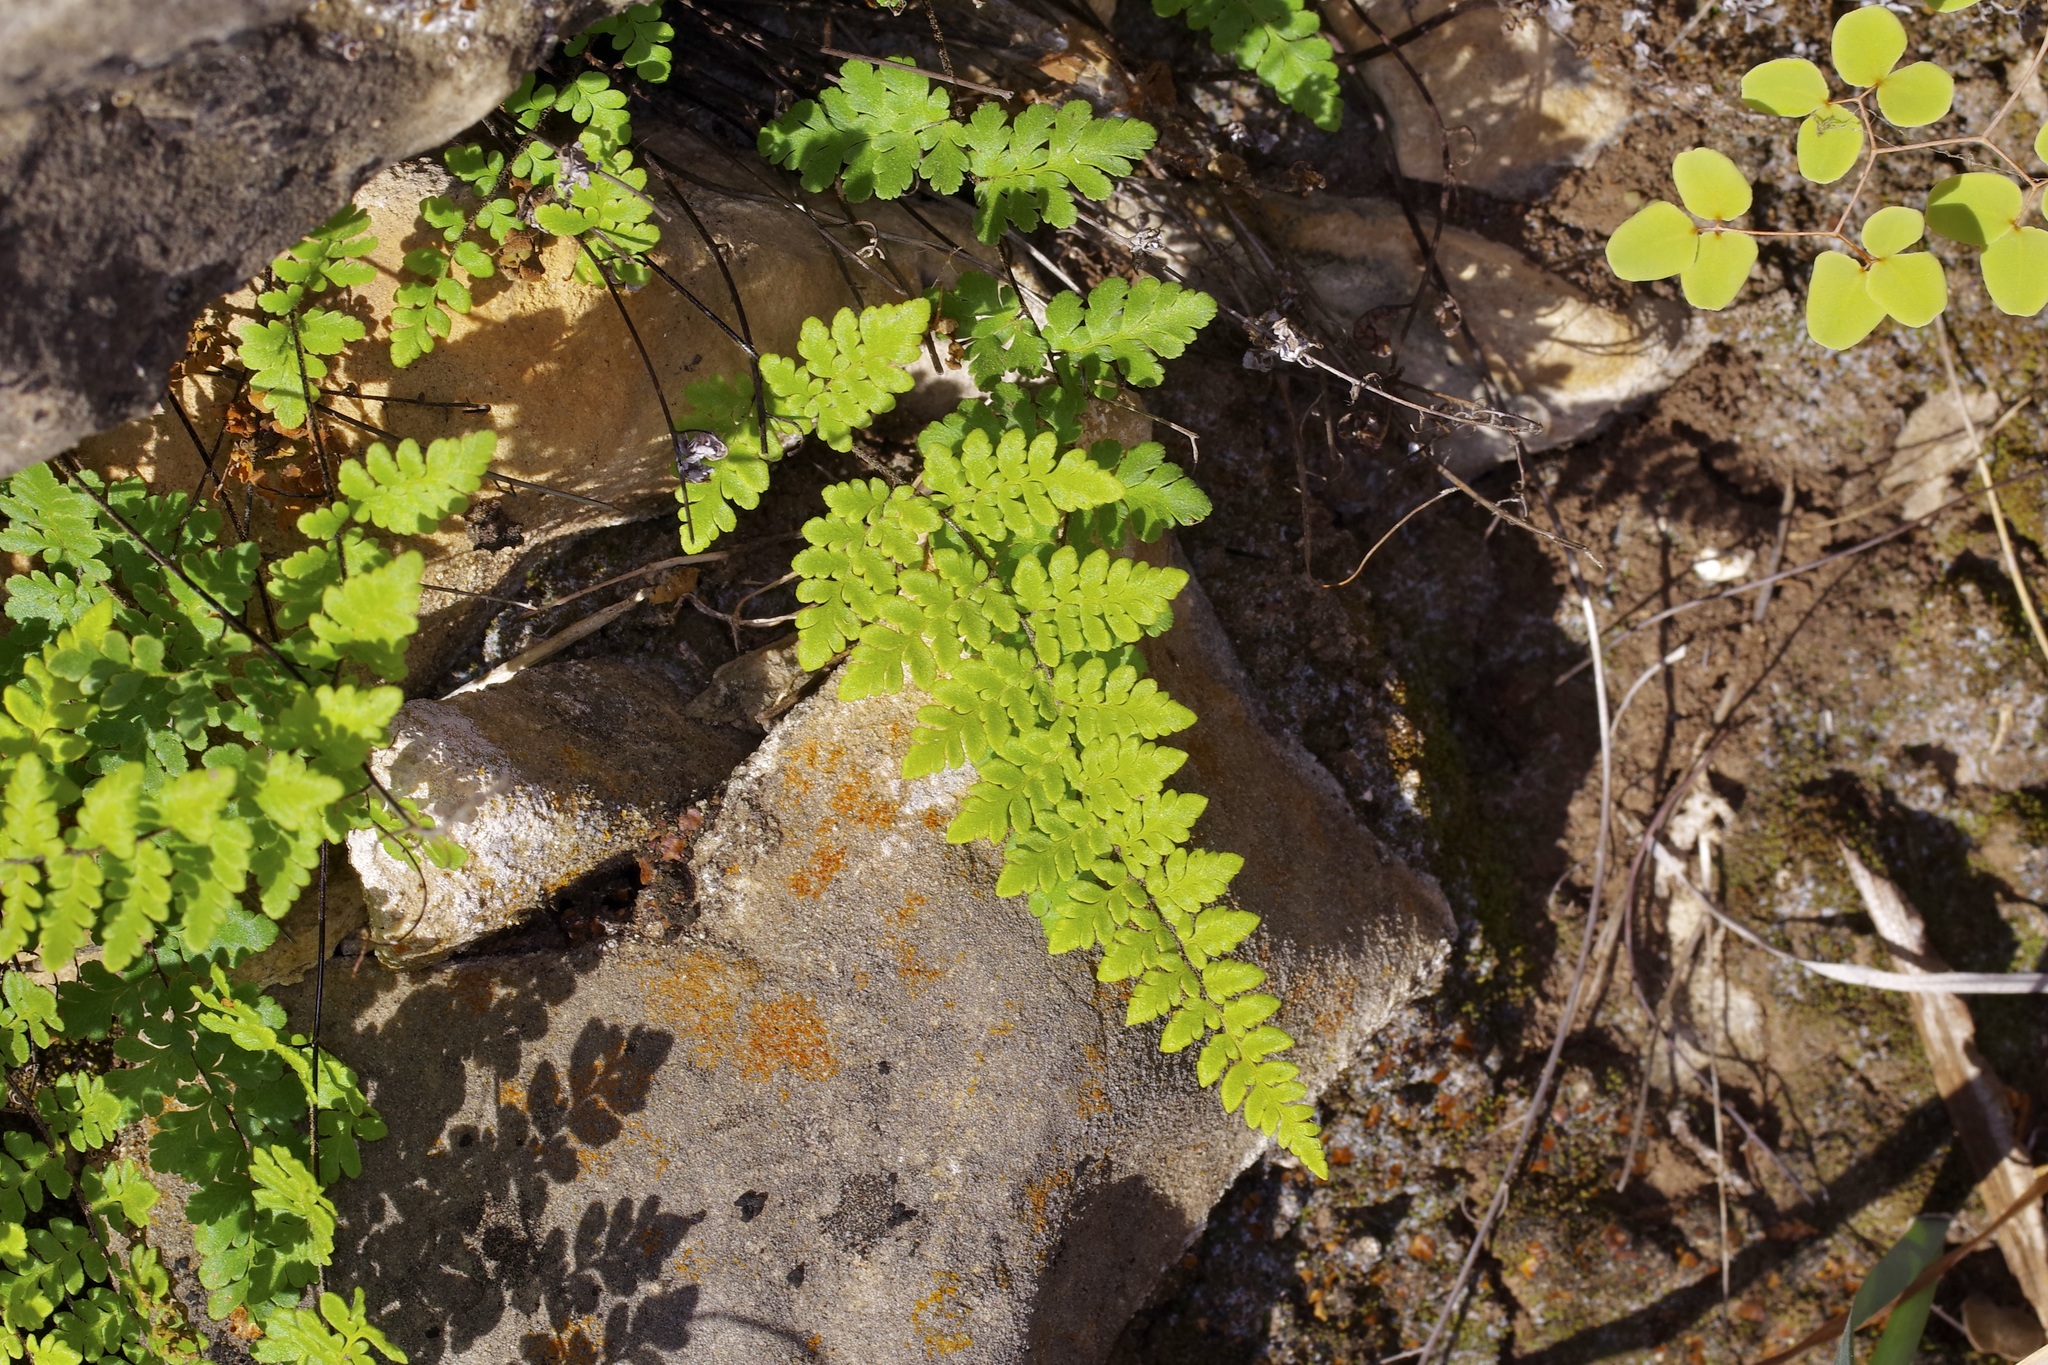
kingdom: Plantae
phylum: Tracheophyta
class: Polypodiopsida
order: Polypodiales
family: Pteridaceae
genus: Myriopteris
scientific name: Myriopteris alabamensis
